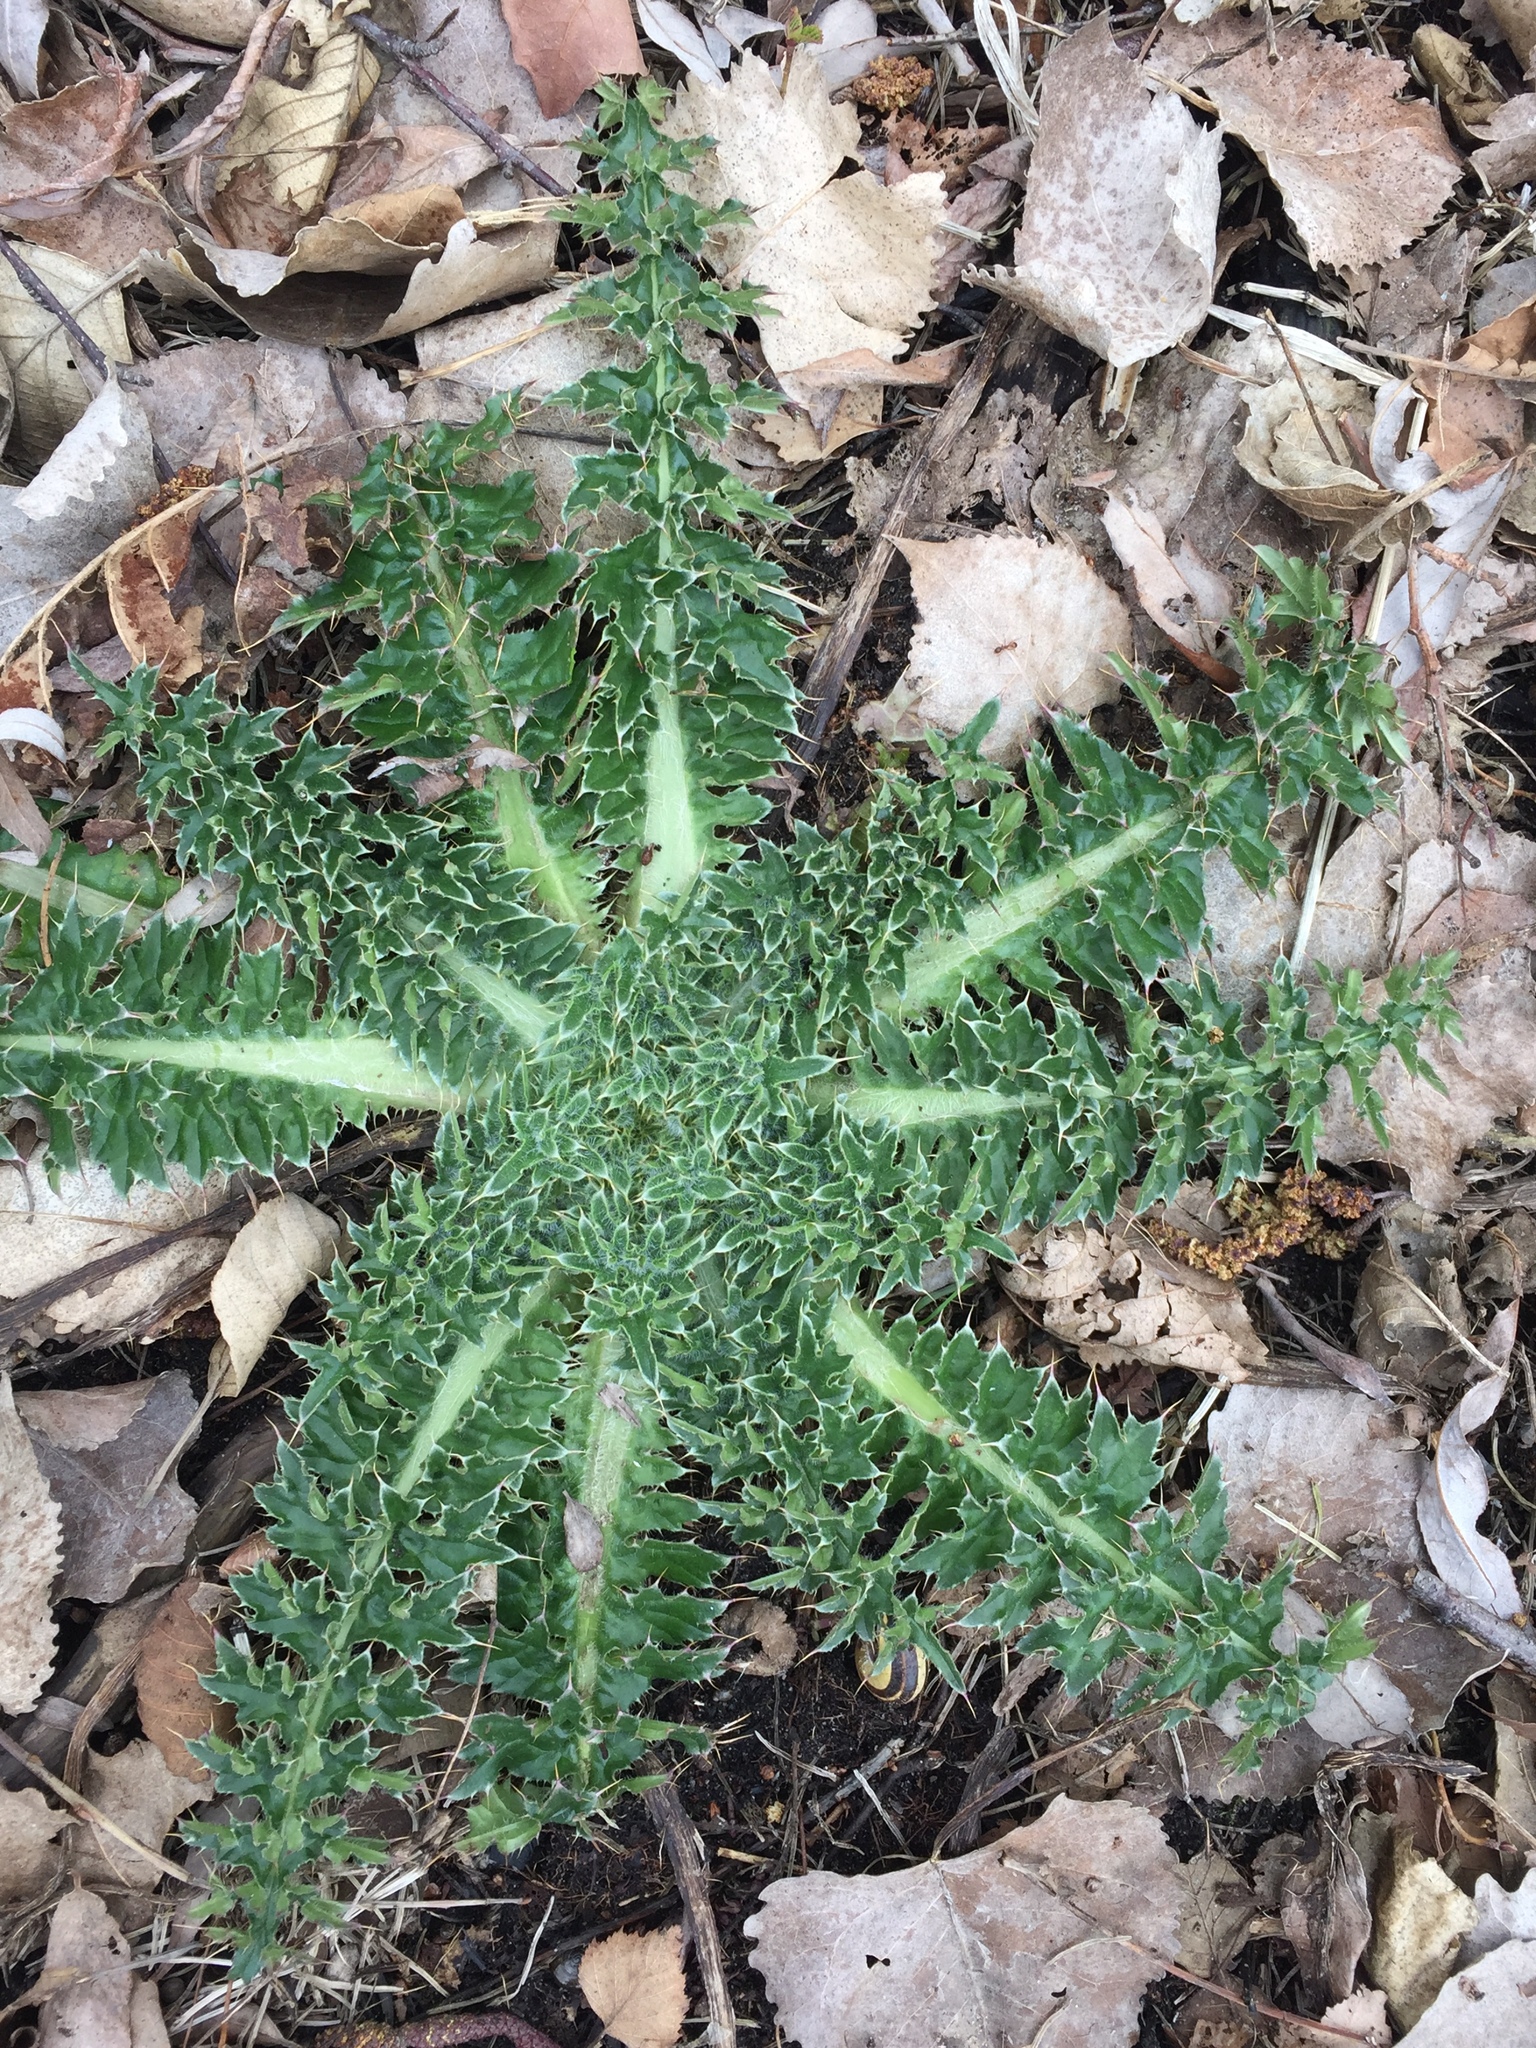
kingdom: Plantae
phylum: Tracheophyta
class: Magnoliopsida
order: Asterales
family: Asteraceae
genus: Carduus
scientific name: Carduus nutans
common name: Musk thistle
